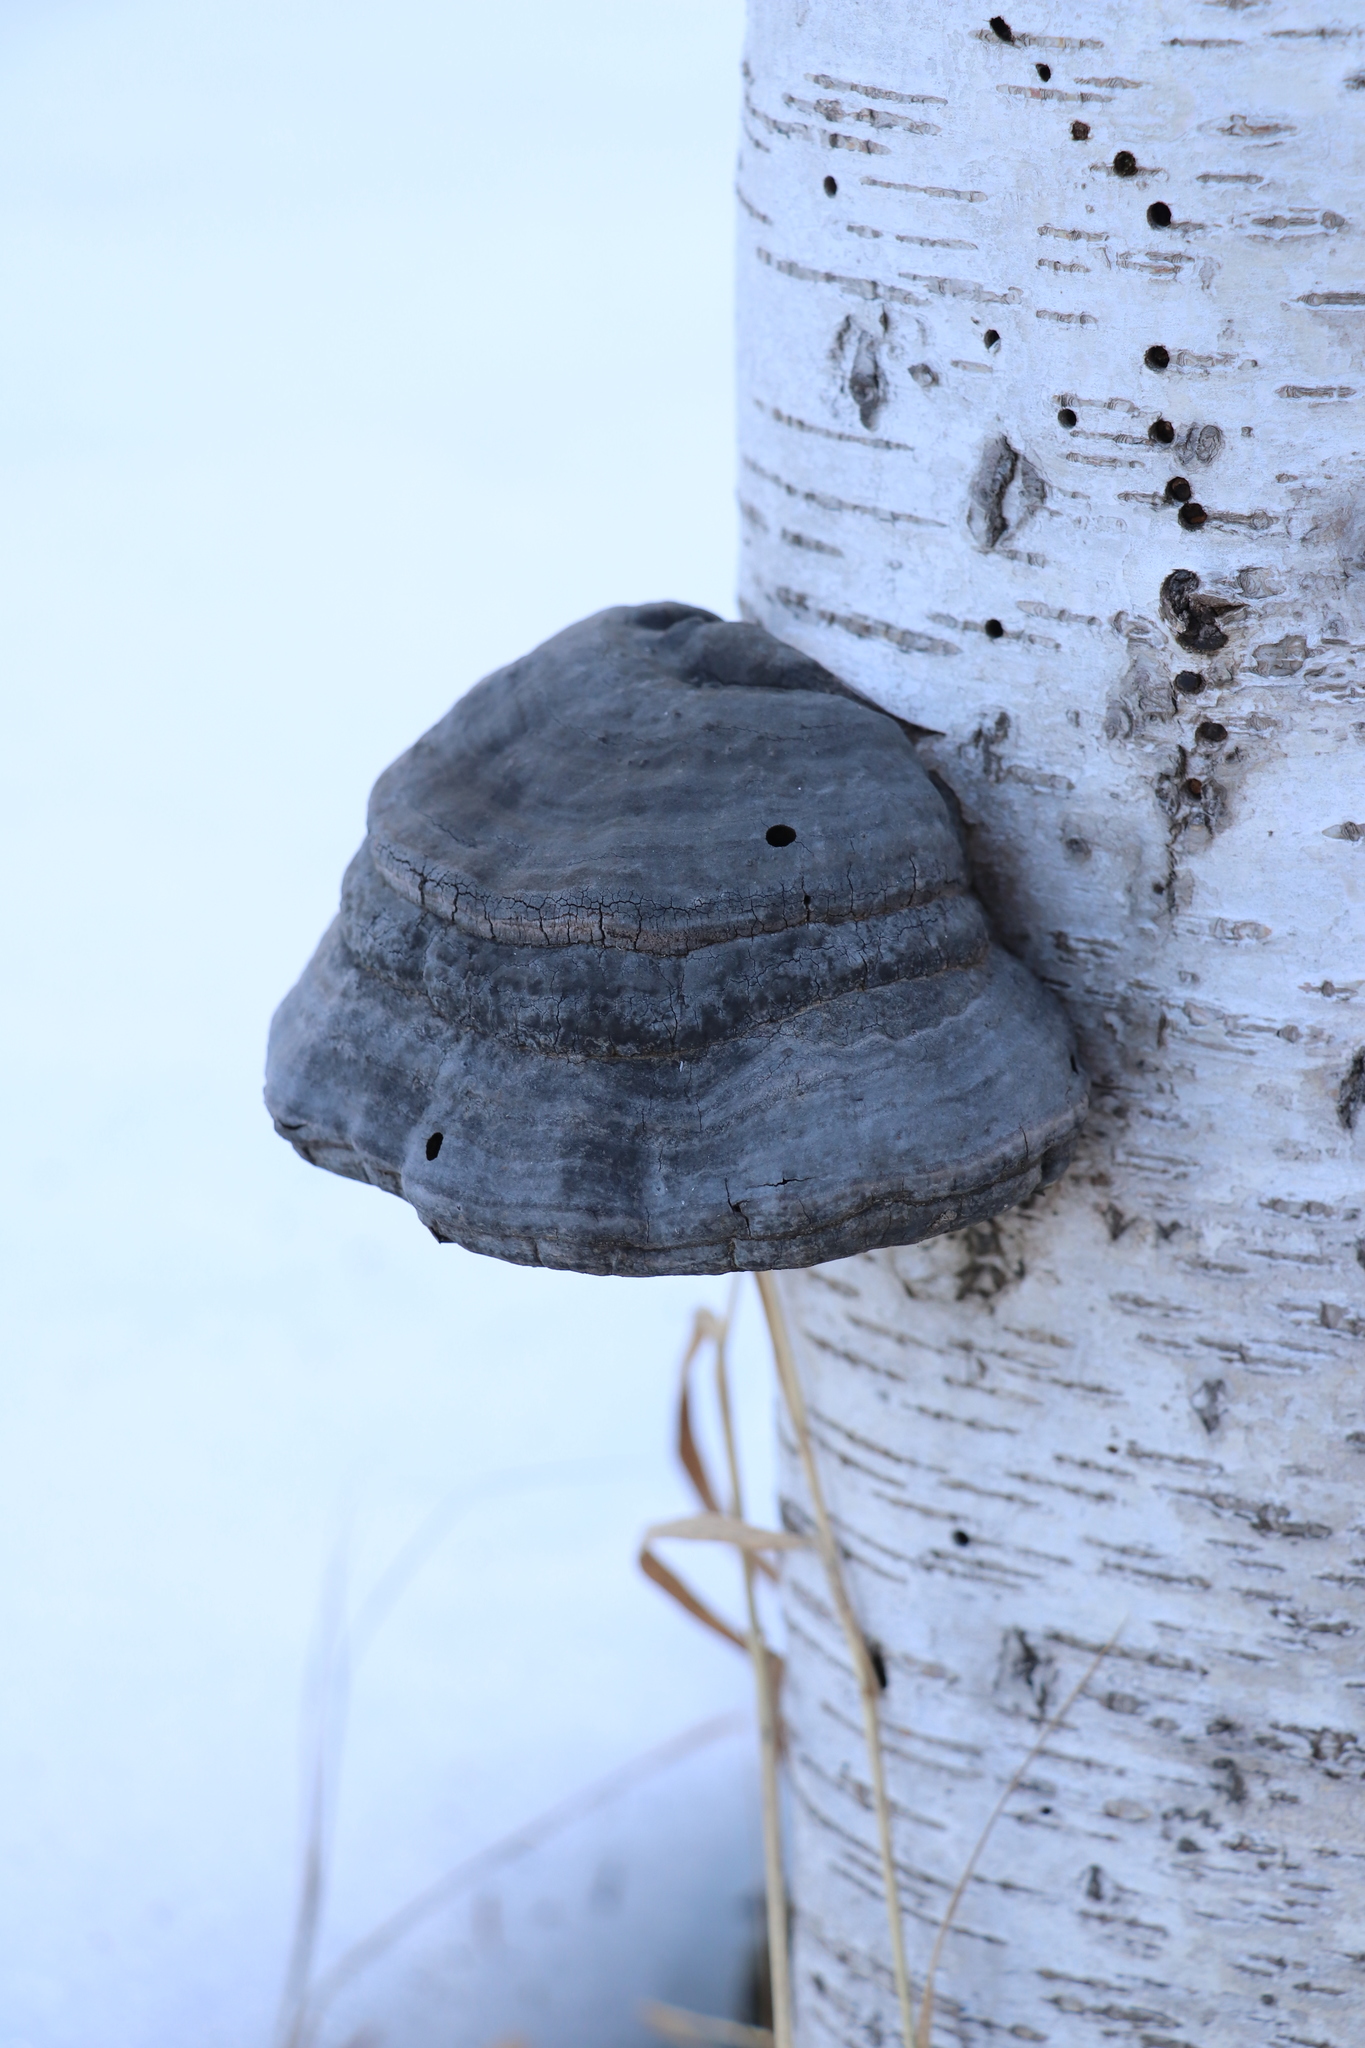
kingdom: Fungi
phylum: Basidiomycota
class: Agaricomycetes
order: Polyporales
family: Polyporaceae
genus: Fomes
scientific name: Fomes fomentarius
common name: Hoof fungus
